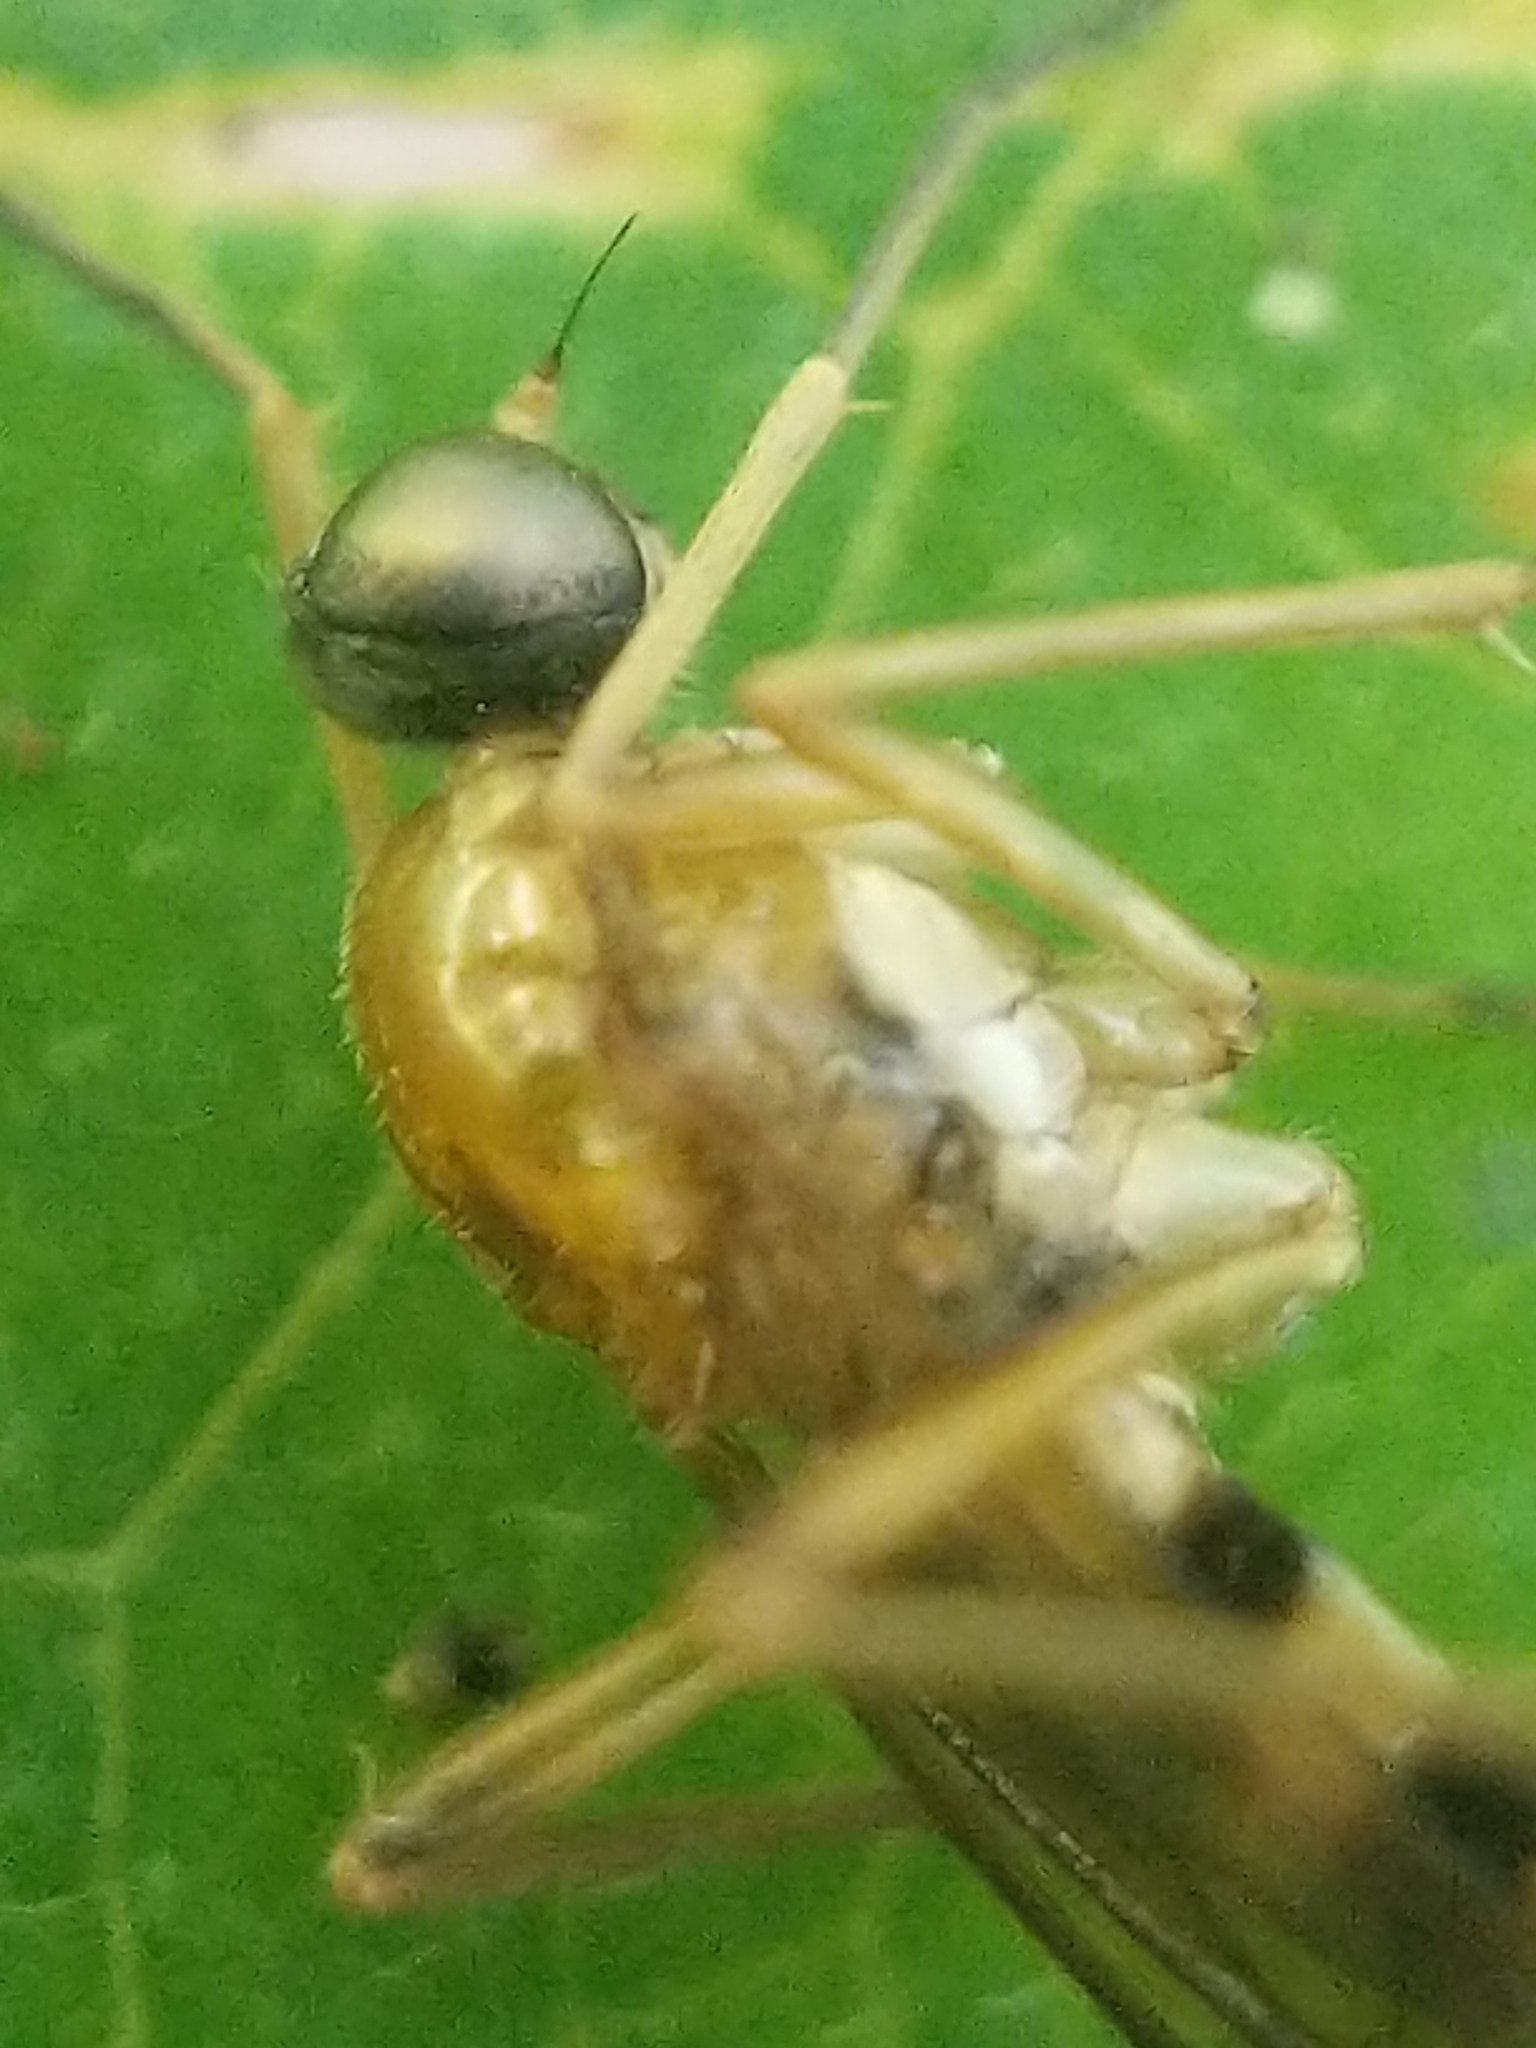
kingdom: Animalia
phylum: Arthropoda
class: Insecta
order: Diptera
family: Xylophagidae
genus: Dialysis
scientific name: Dialysis elongata
